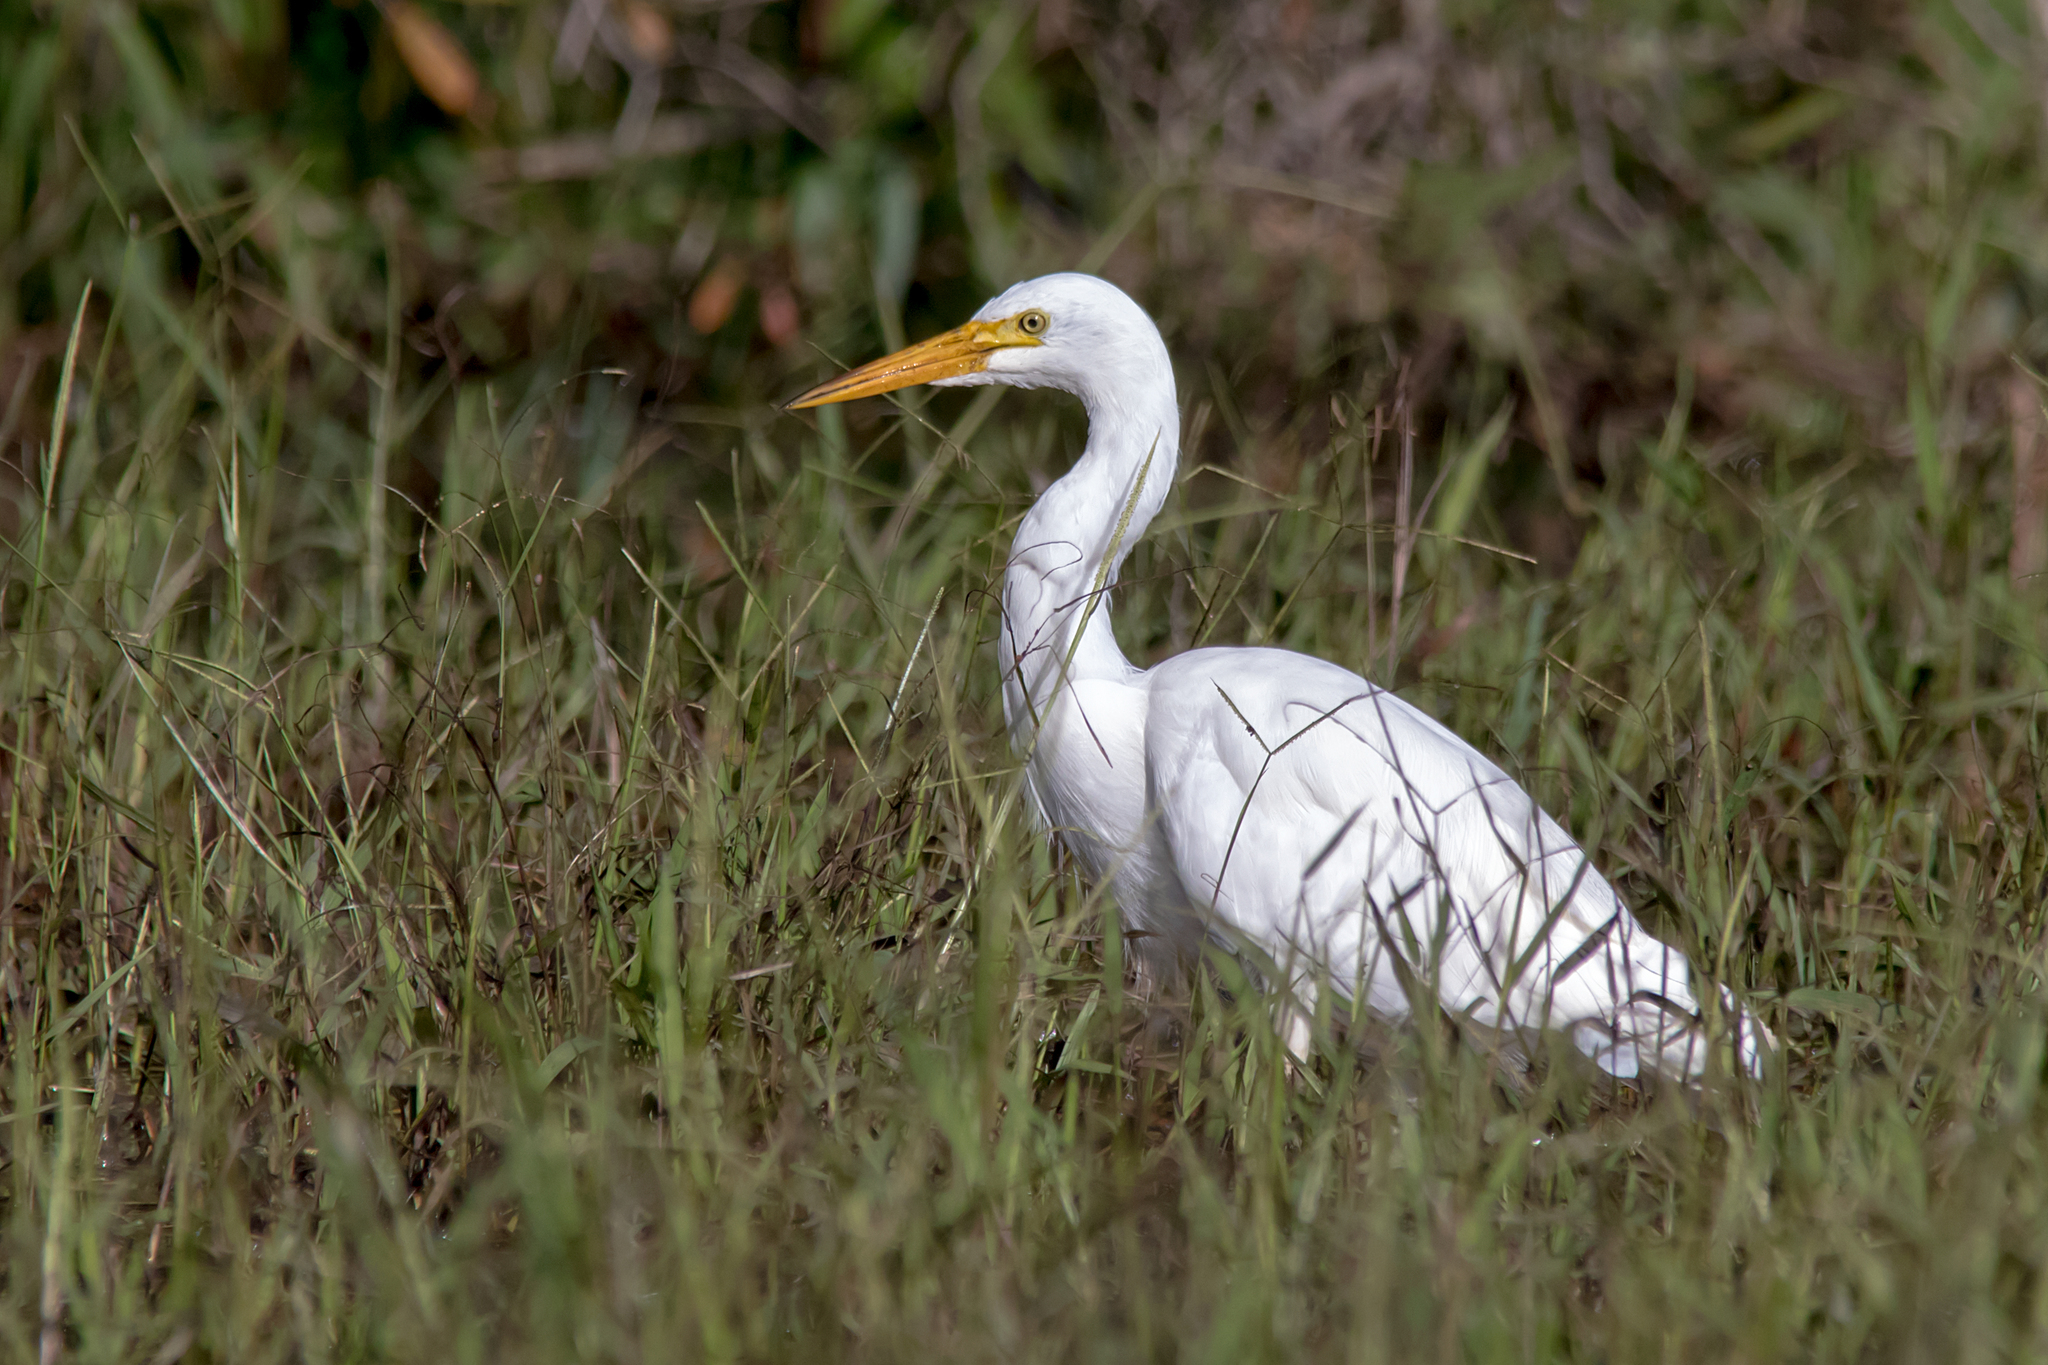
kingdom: Animalia
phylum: Chordata
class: Aves
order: Pelecaniformes
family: Ardeidae
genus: Egretta
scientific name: Egretta intermedia
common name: Intermediate egret
